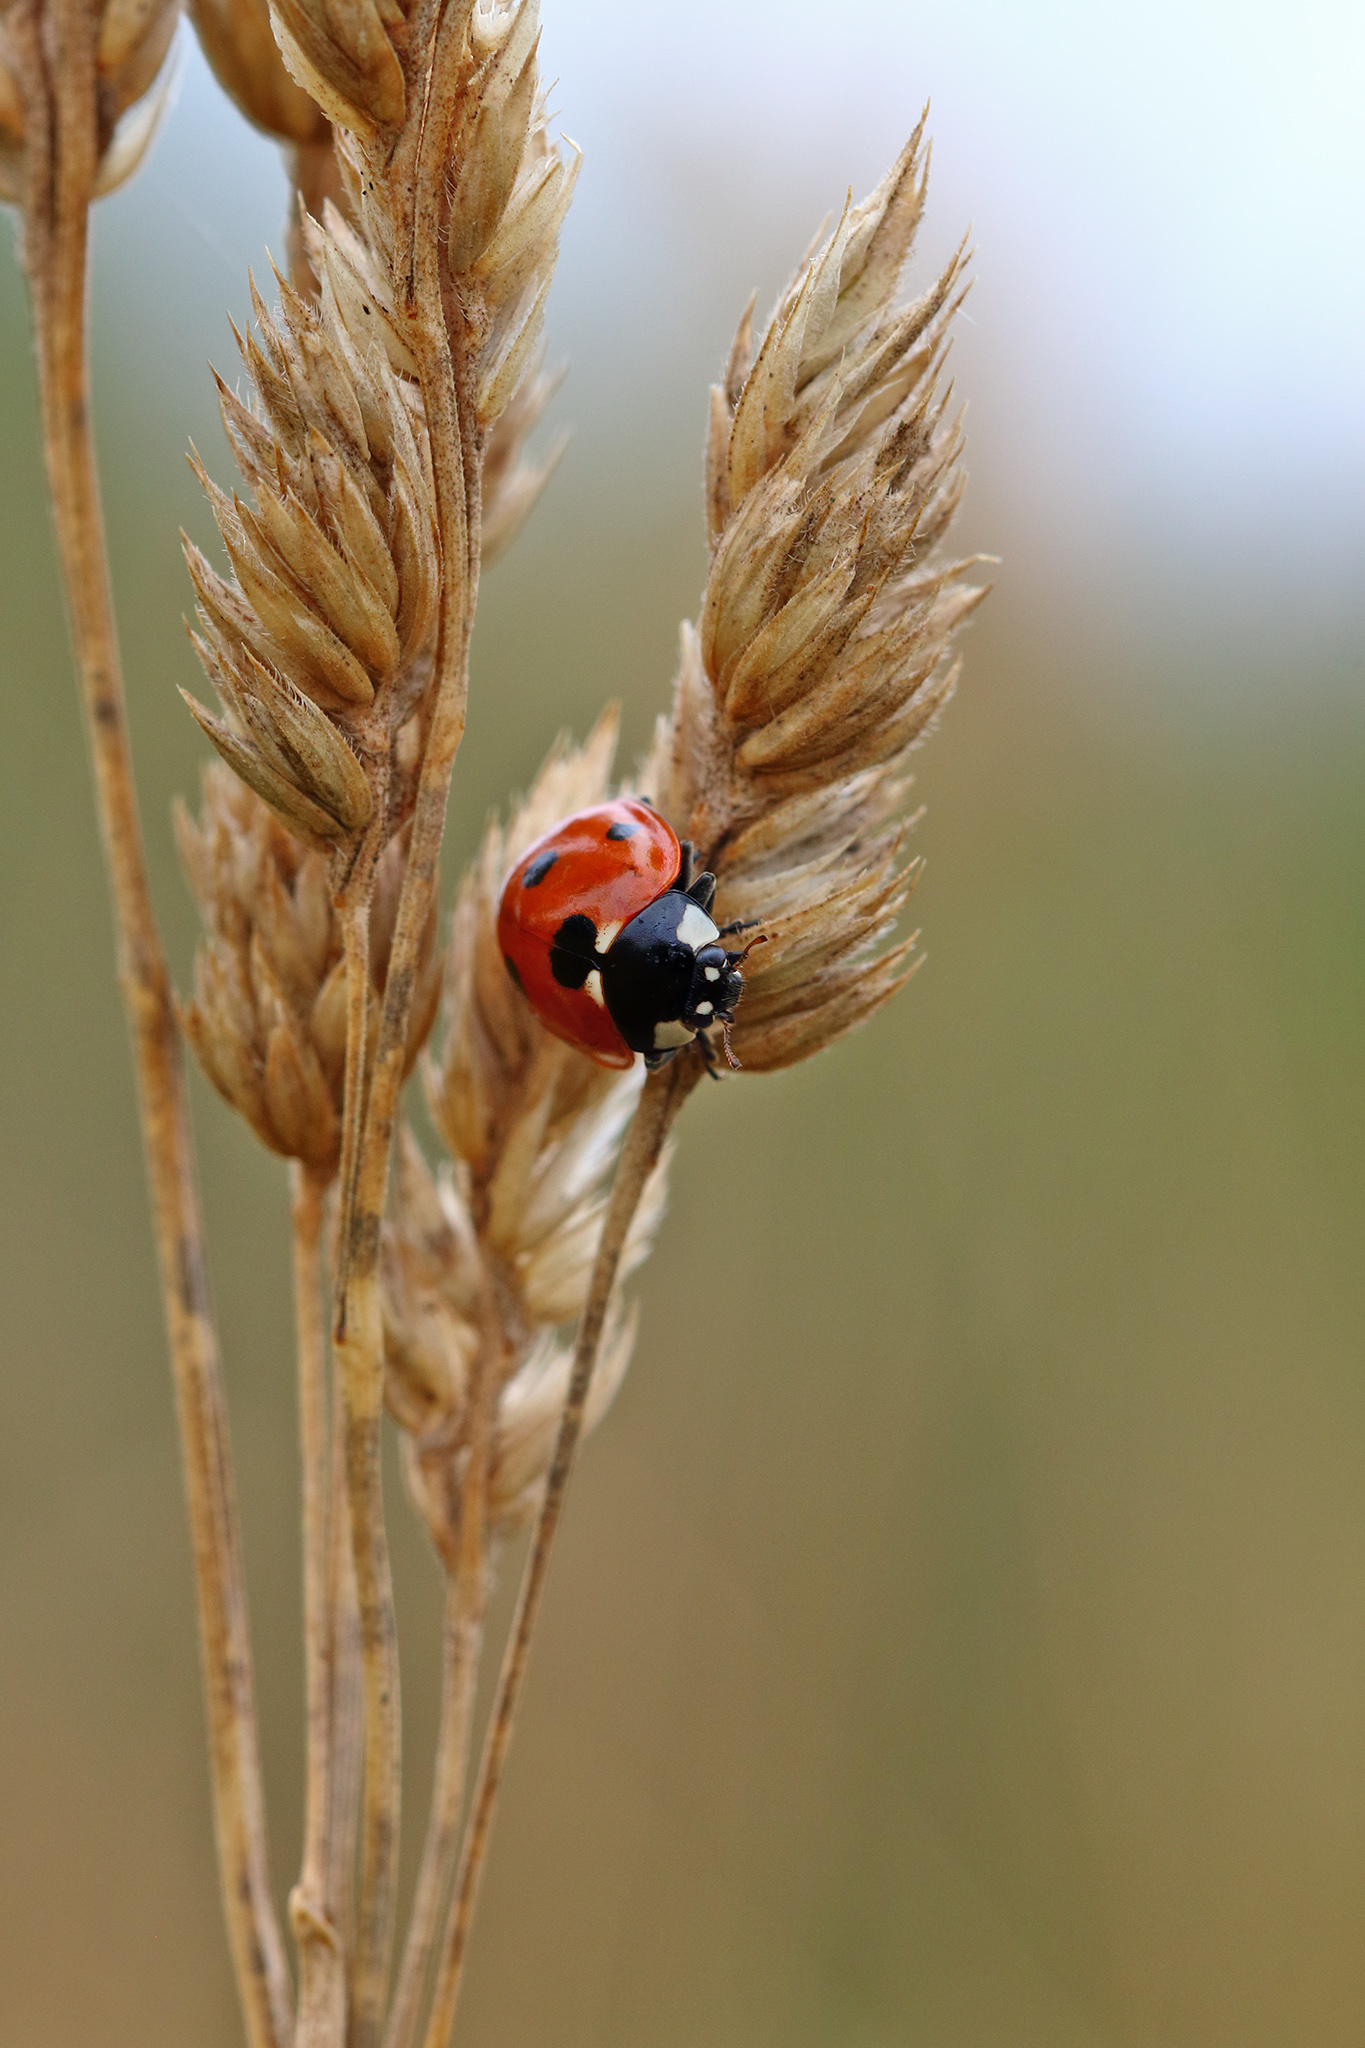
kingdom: Animalia
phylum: Arthropoda
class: Insecta
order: Coleoptera
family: Coccinellidae
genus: Coccinella
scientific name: Coccinella septempunctata
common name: Sevenspotted lady beetle
